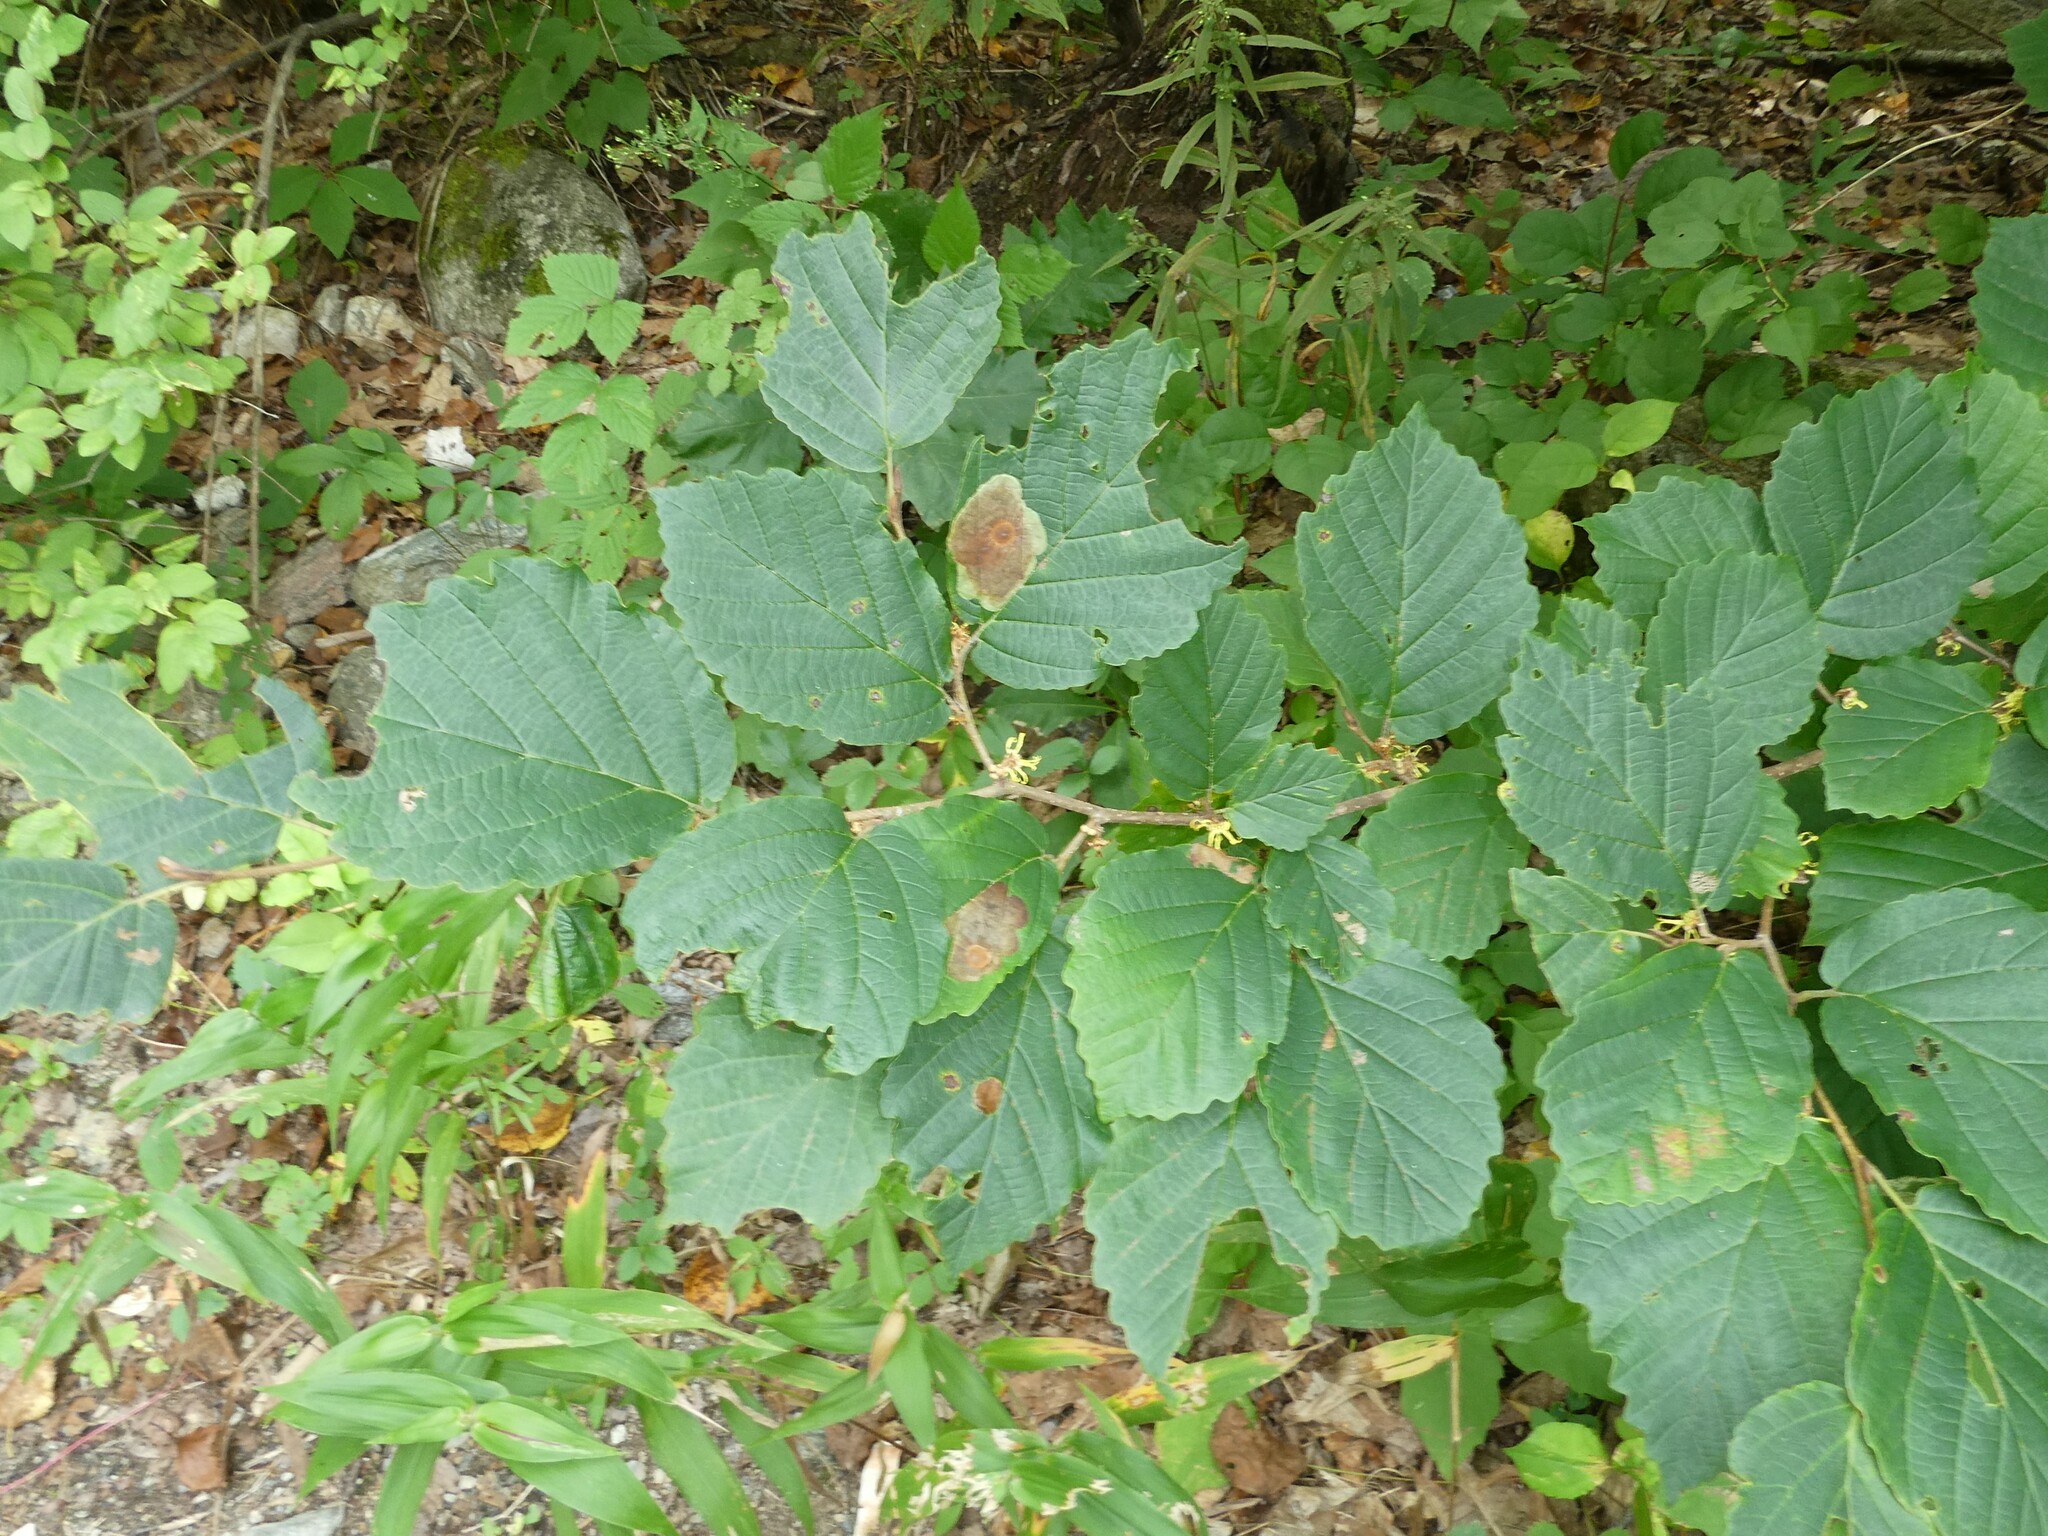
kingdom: Animalia
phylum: Arthropoda
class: Insecta
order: Lepidoptera
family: Gracillariidae
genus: Cameraria
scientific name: Cameraria hamameliella
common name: Witchhazel leafminer
